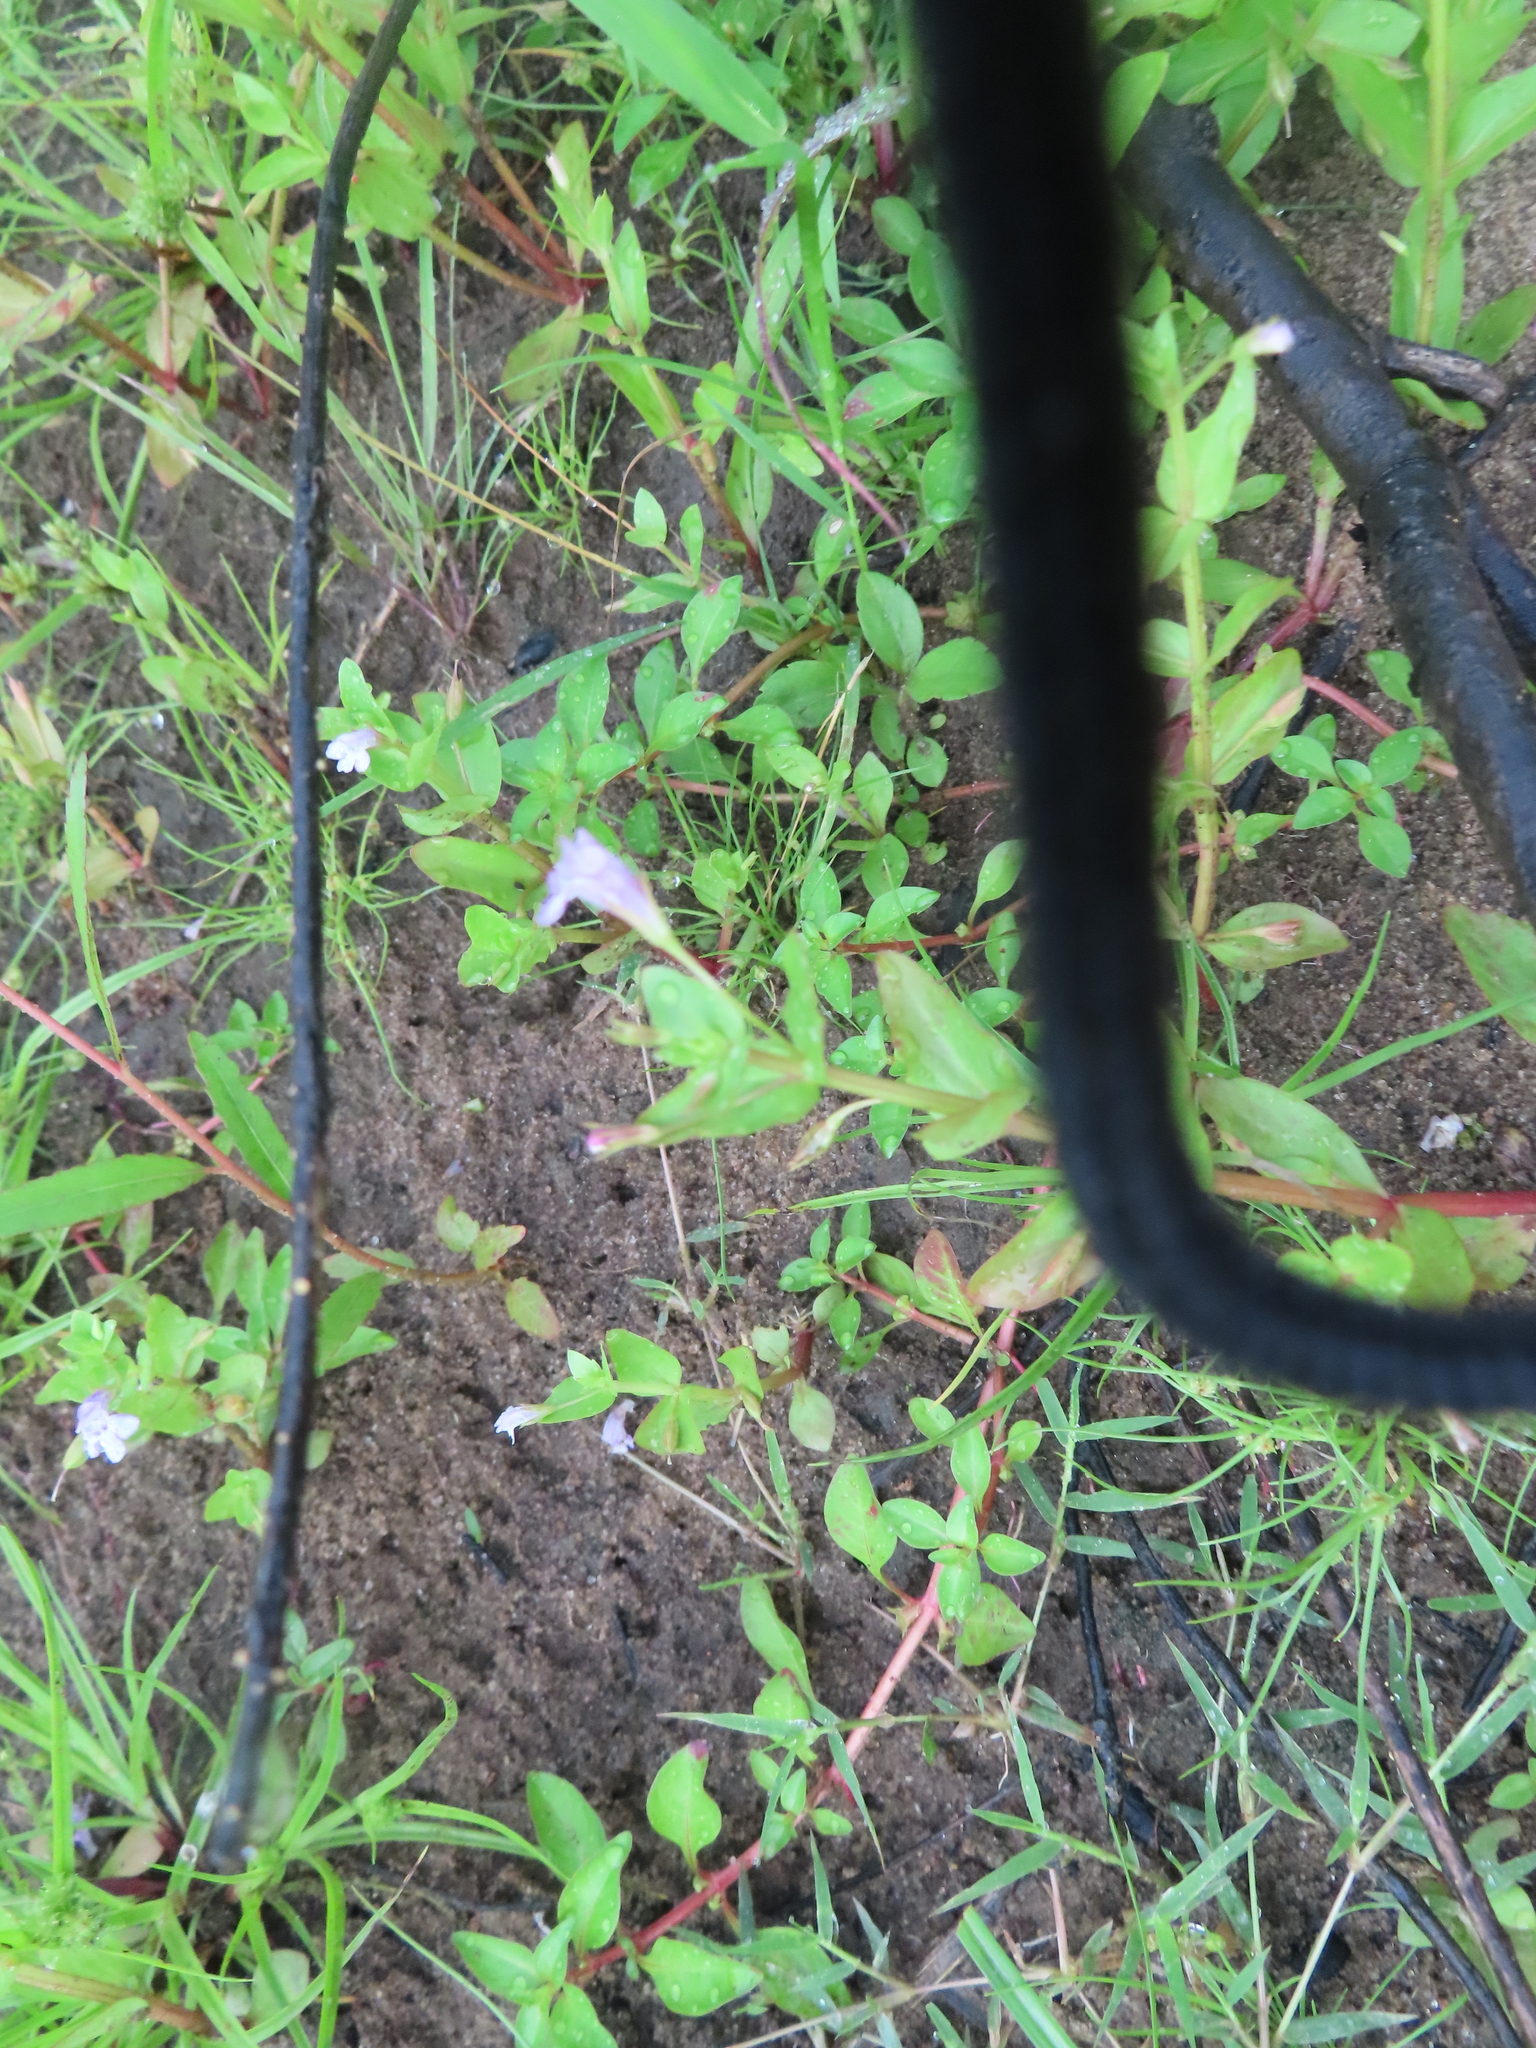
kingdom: Plantae
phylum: Tracheophyta
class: Magnoliopsida
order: Lamiales
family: Linderniaceae
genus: Lindernia
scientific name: Lindernia dubia
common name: Annual false pimpernel
